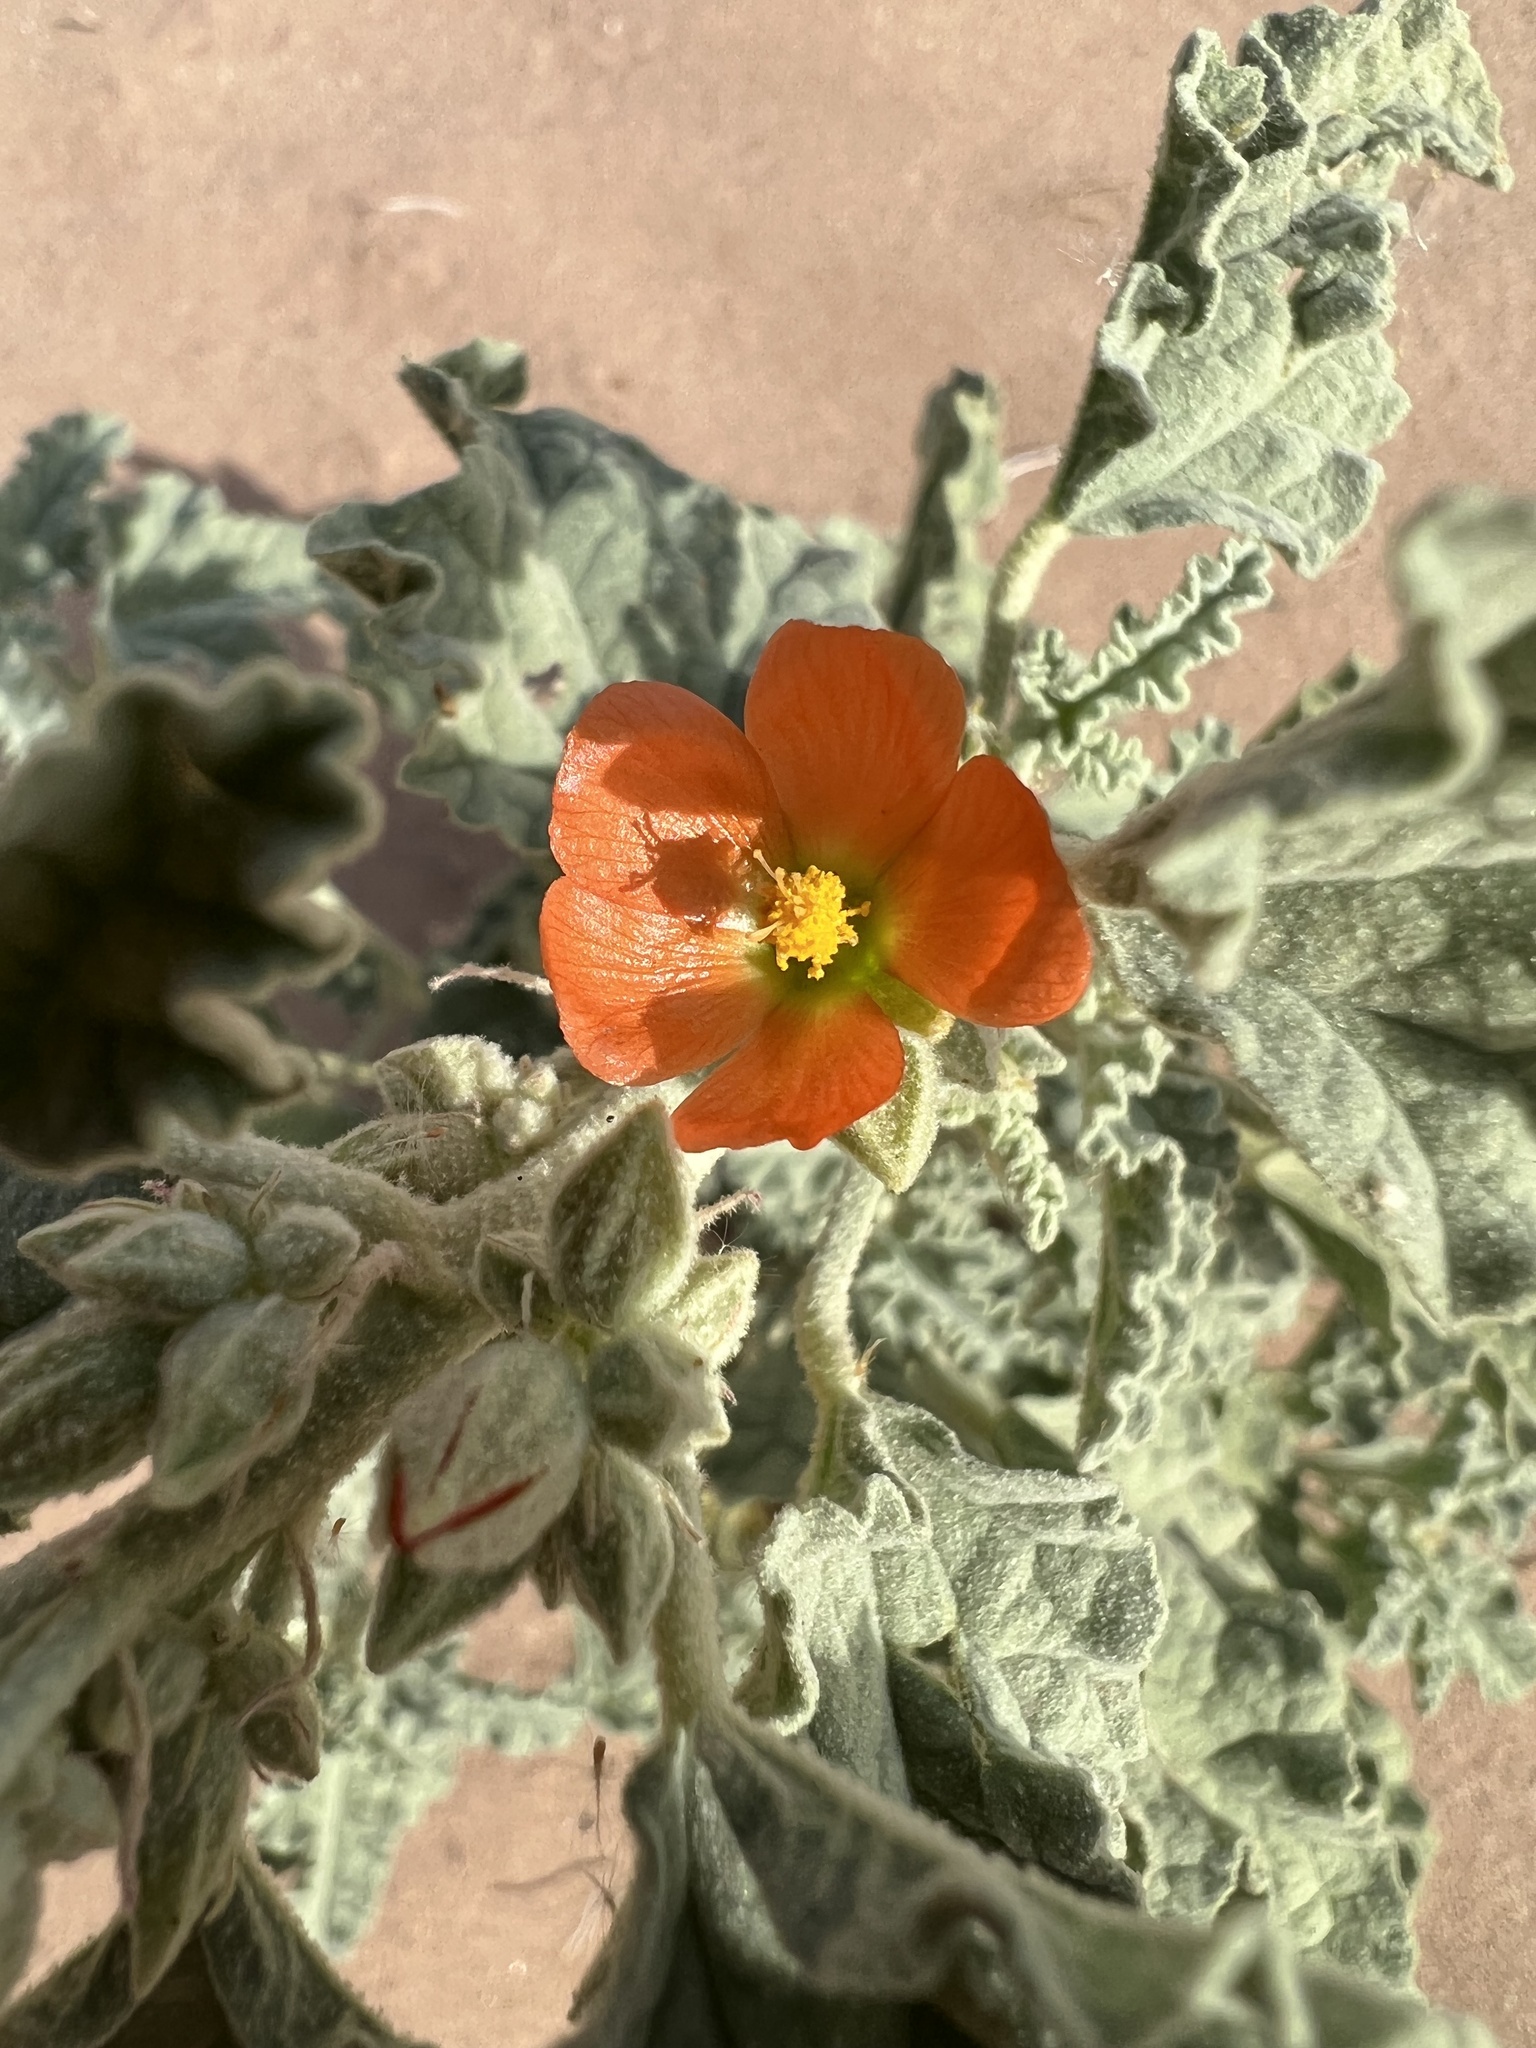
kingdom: Plantae
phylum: Tracheophyta
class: Magnoliopsida
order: Malvales
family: Malvaceae
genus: Sphaeralcea
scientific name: Sphaeralcea ambigua
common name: Apricot globe-mallow
